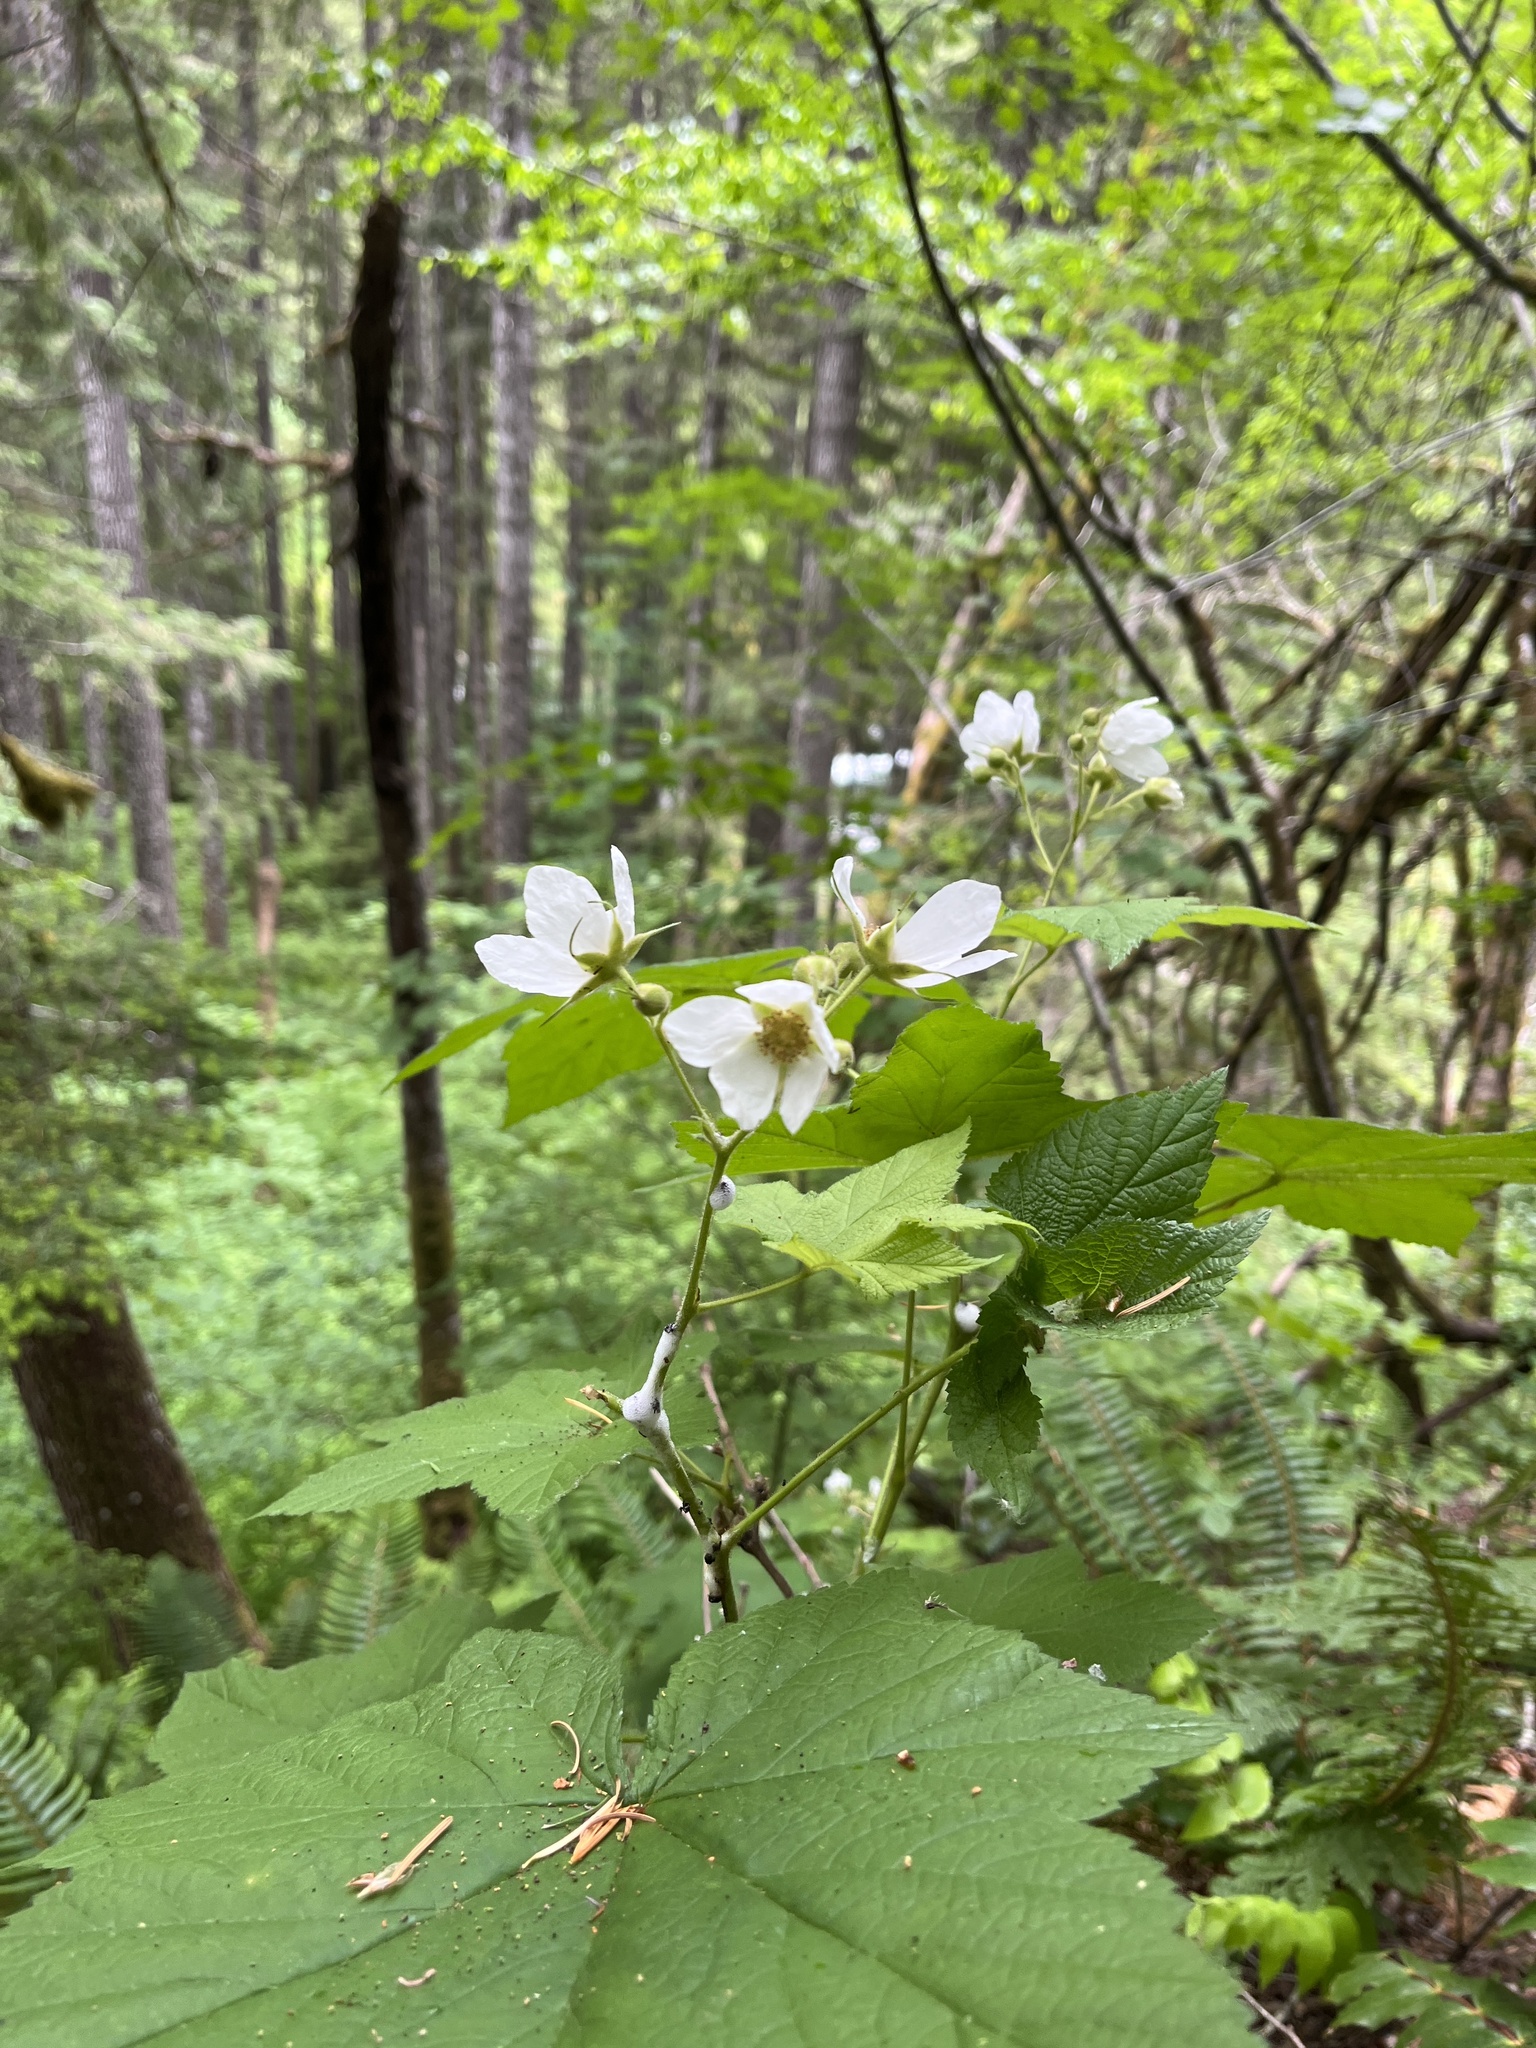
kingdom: Plantae
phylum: Tracheophyta
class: Magnoliopsida
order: Rosales
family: Rosaceae
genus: Rubus
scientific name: Rubus parviflorus
